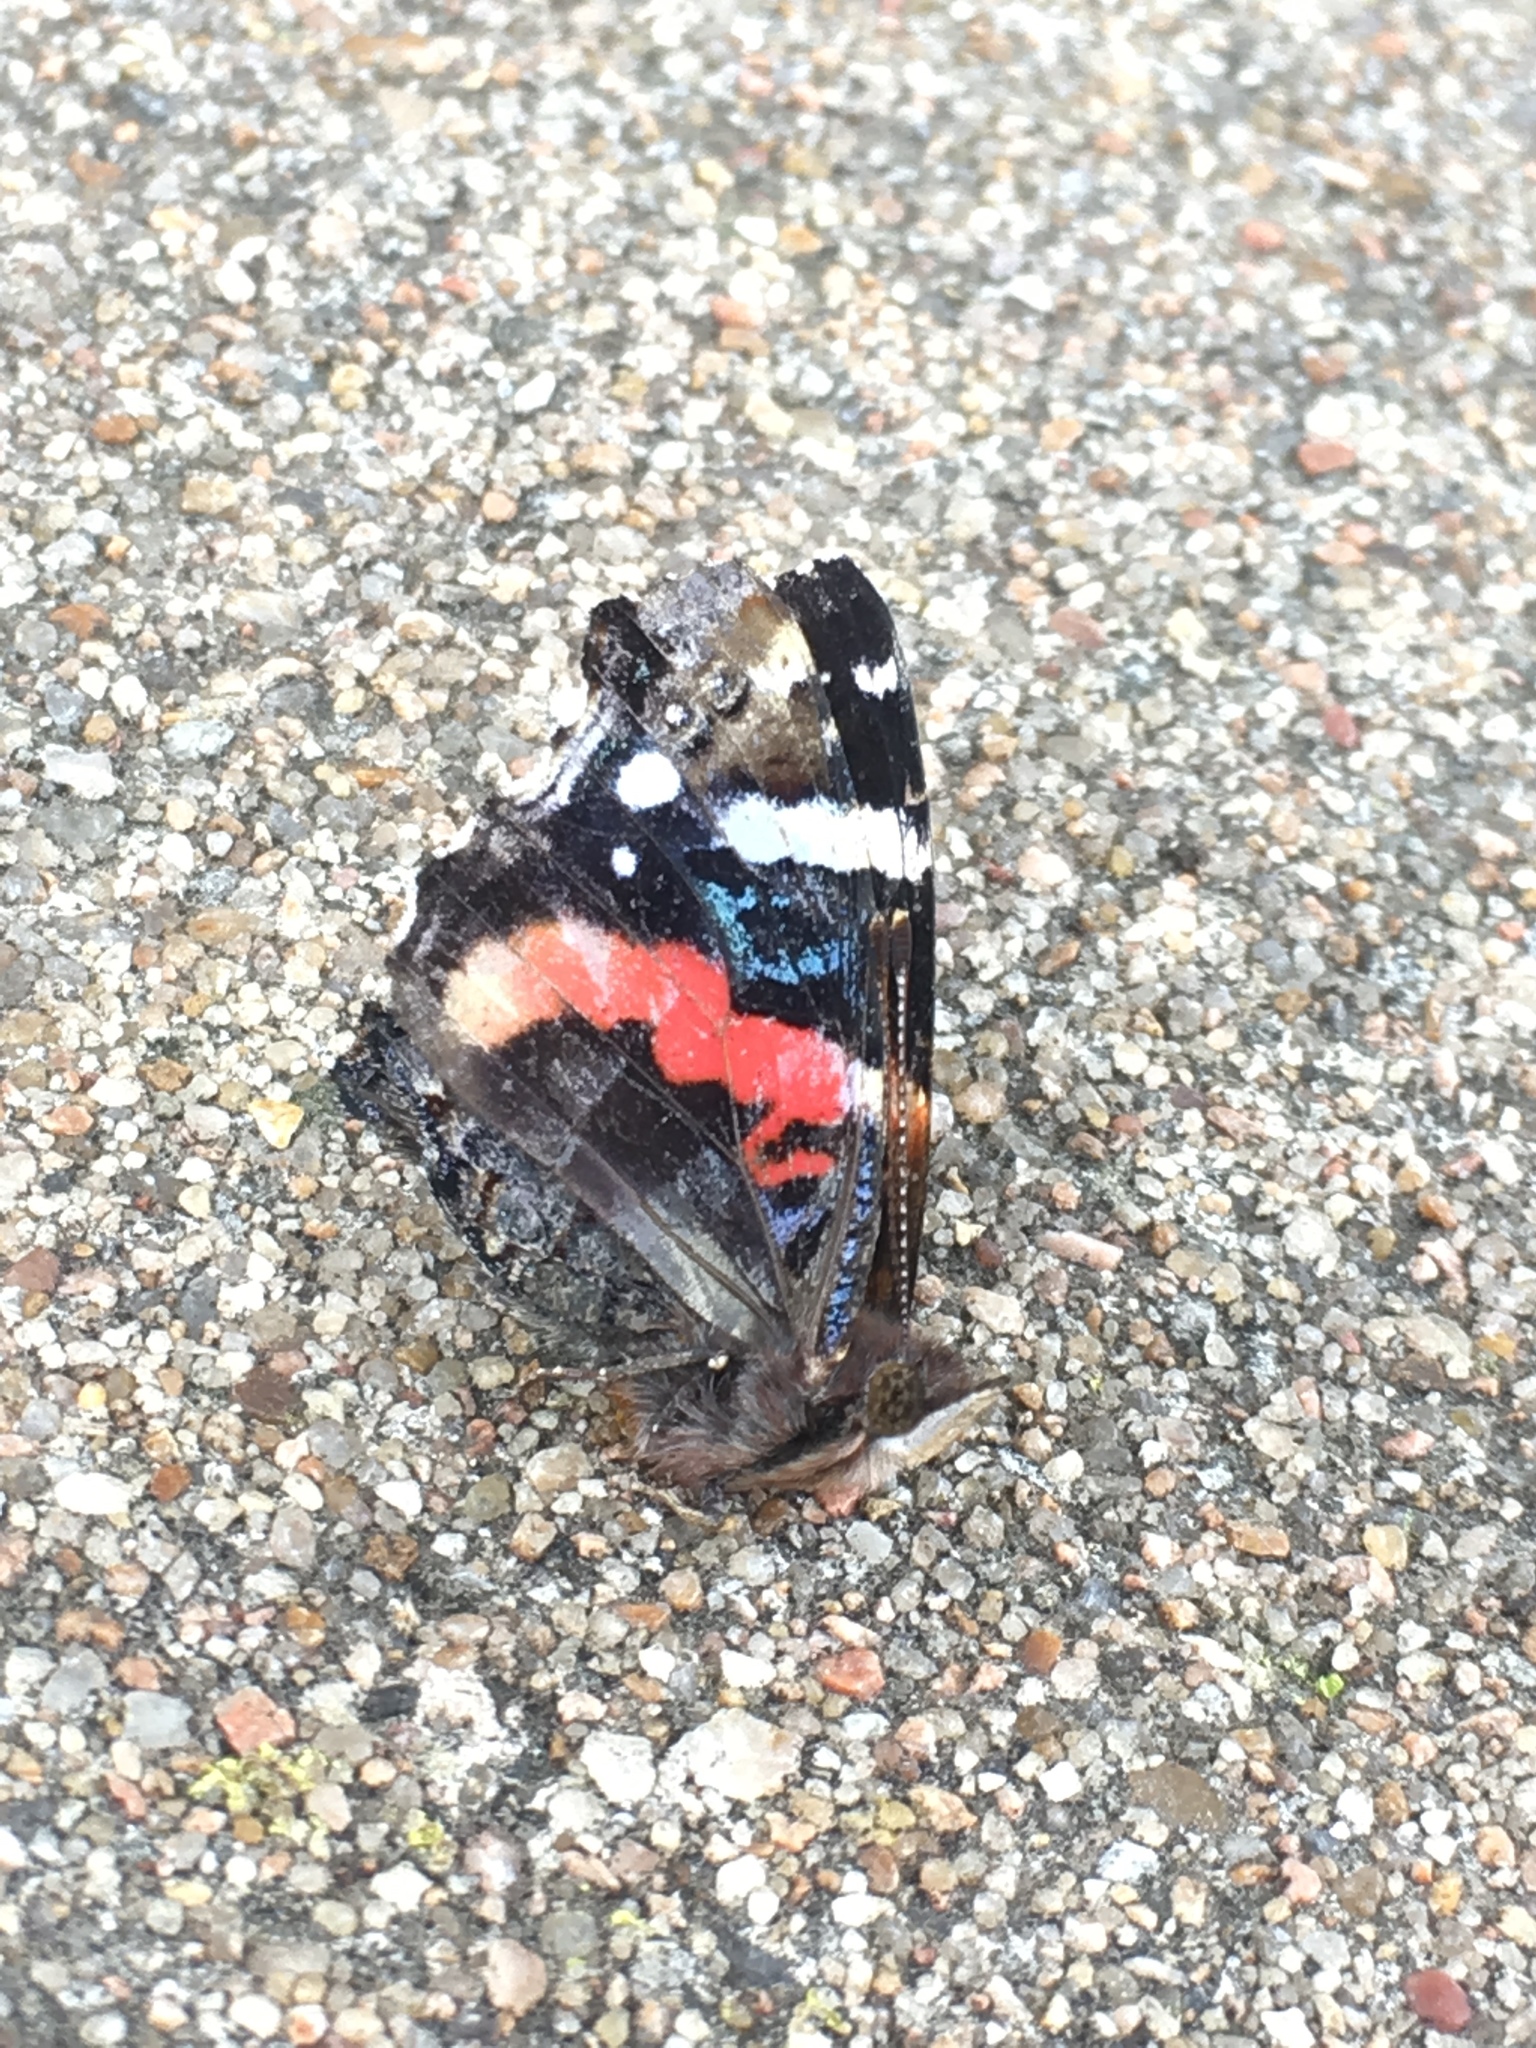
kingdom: Animalia
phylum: Arthropoda
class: Insecta
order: Lepidoptera
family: Nymphalidae
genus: Vanessa
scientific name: Vanessa atalanta
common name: Red admiral
